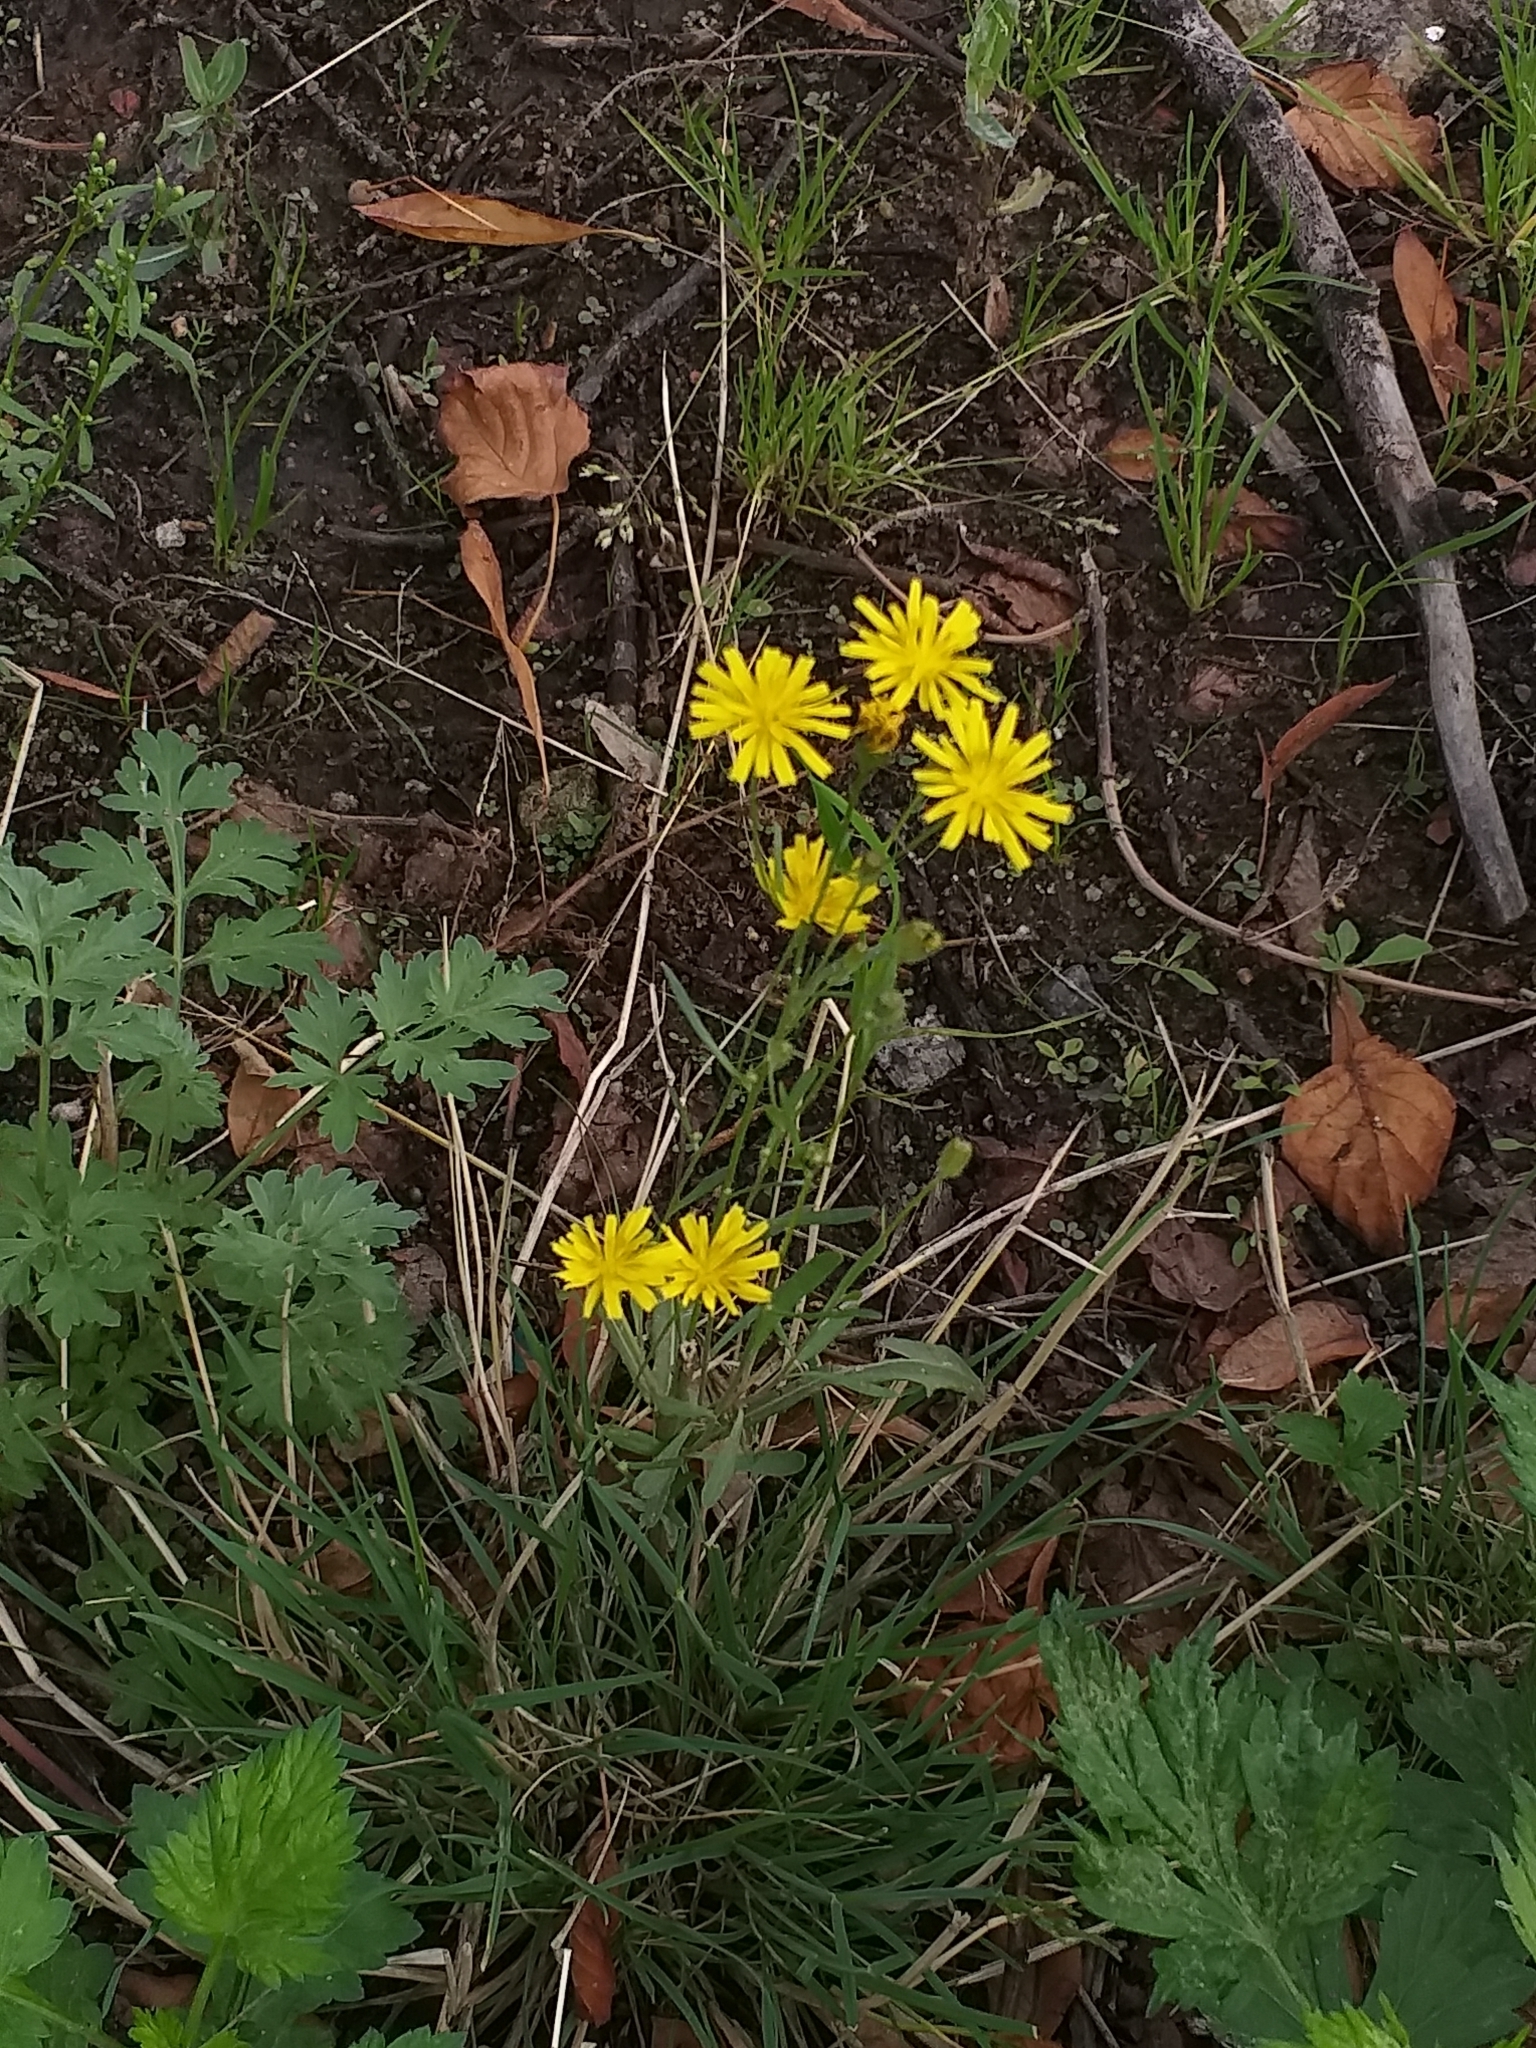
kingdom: Plantae
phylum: Tracheophyta
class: Magnoliopsida
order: Asterales
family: Asteraceae
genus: Crepis
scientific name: Crepis tectorum
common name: Narrow-leaved hawk's-beard
